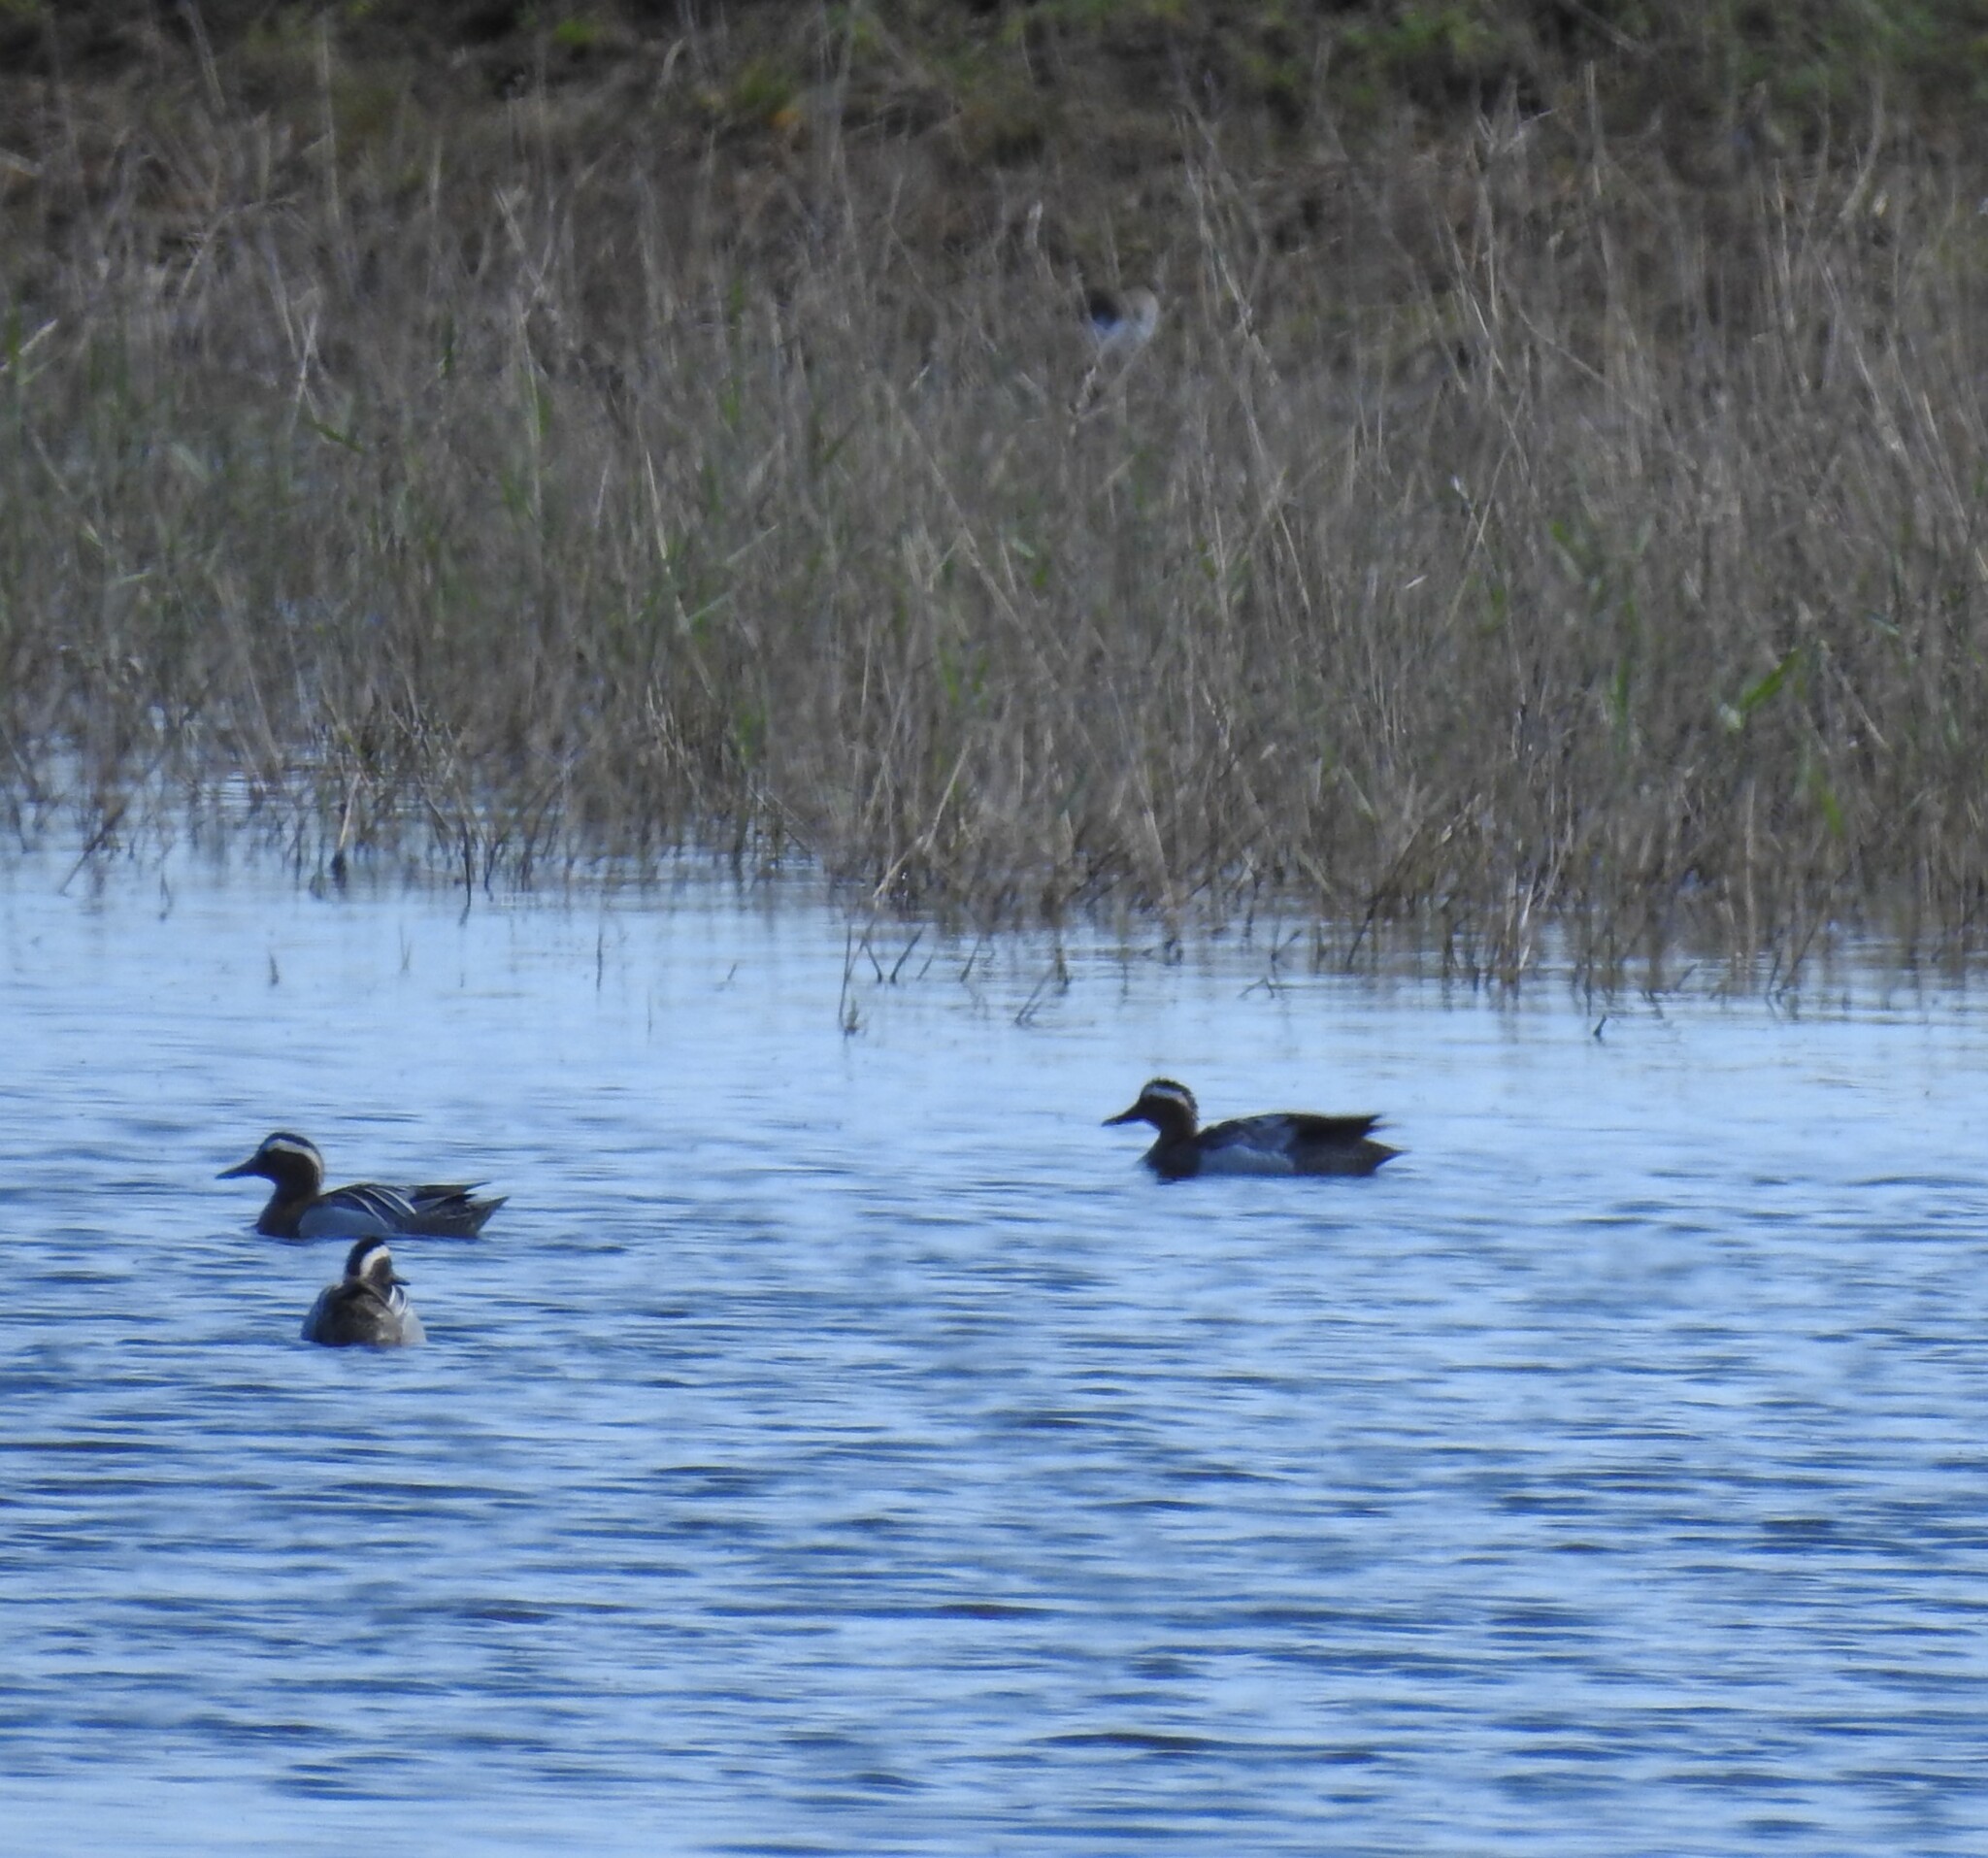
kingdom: Animalia
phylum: Chordata
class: Aves
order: Anseriformes
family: Anatidae
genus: Spatula
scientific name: Spatula querquedula
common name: Garganey
